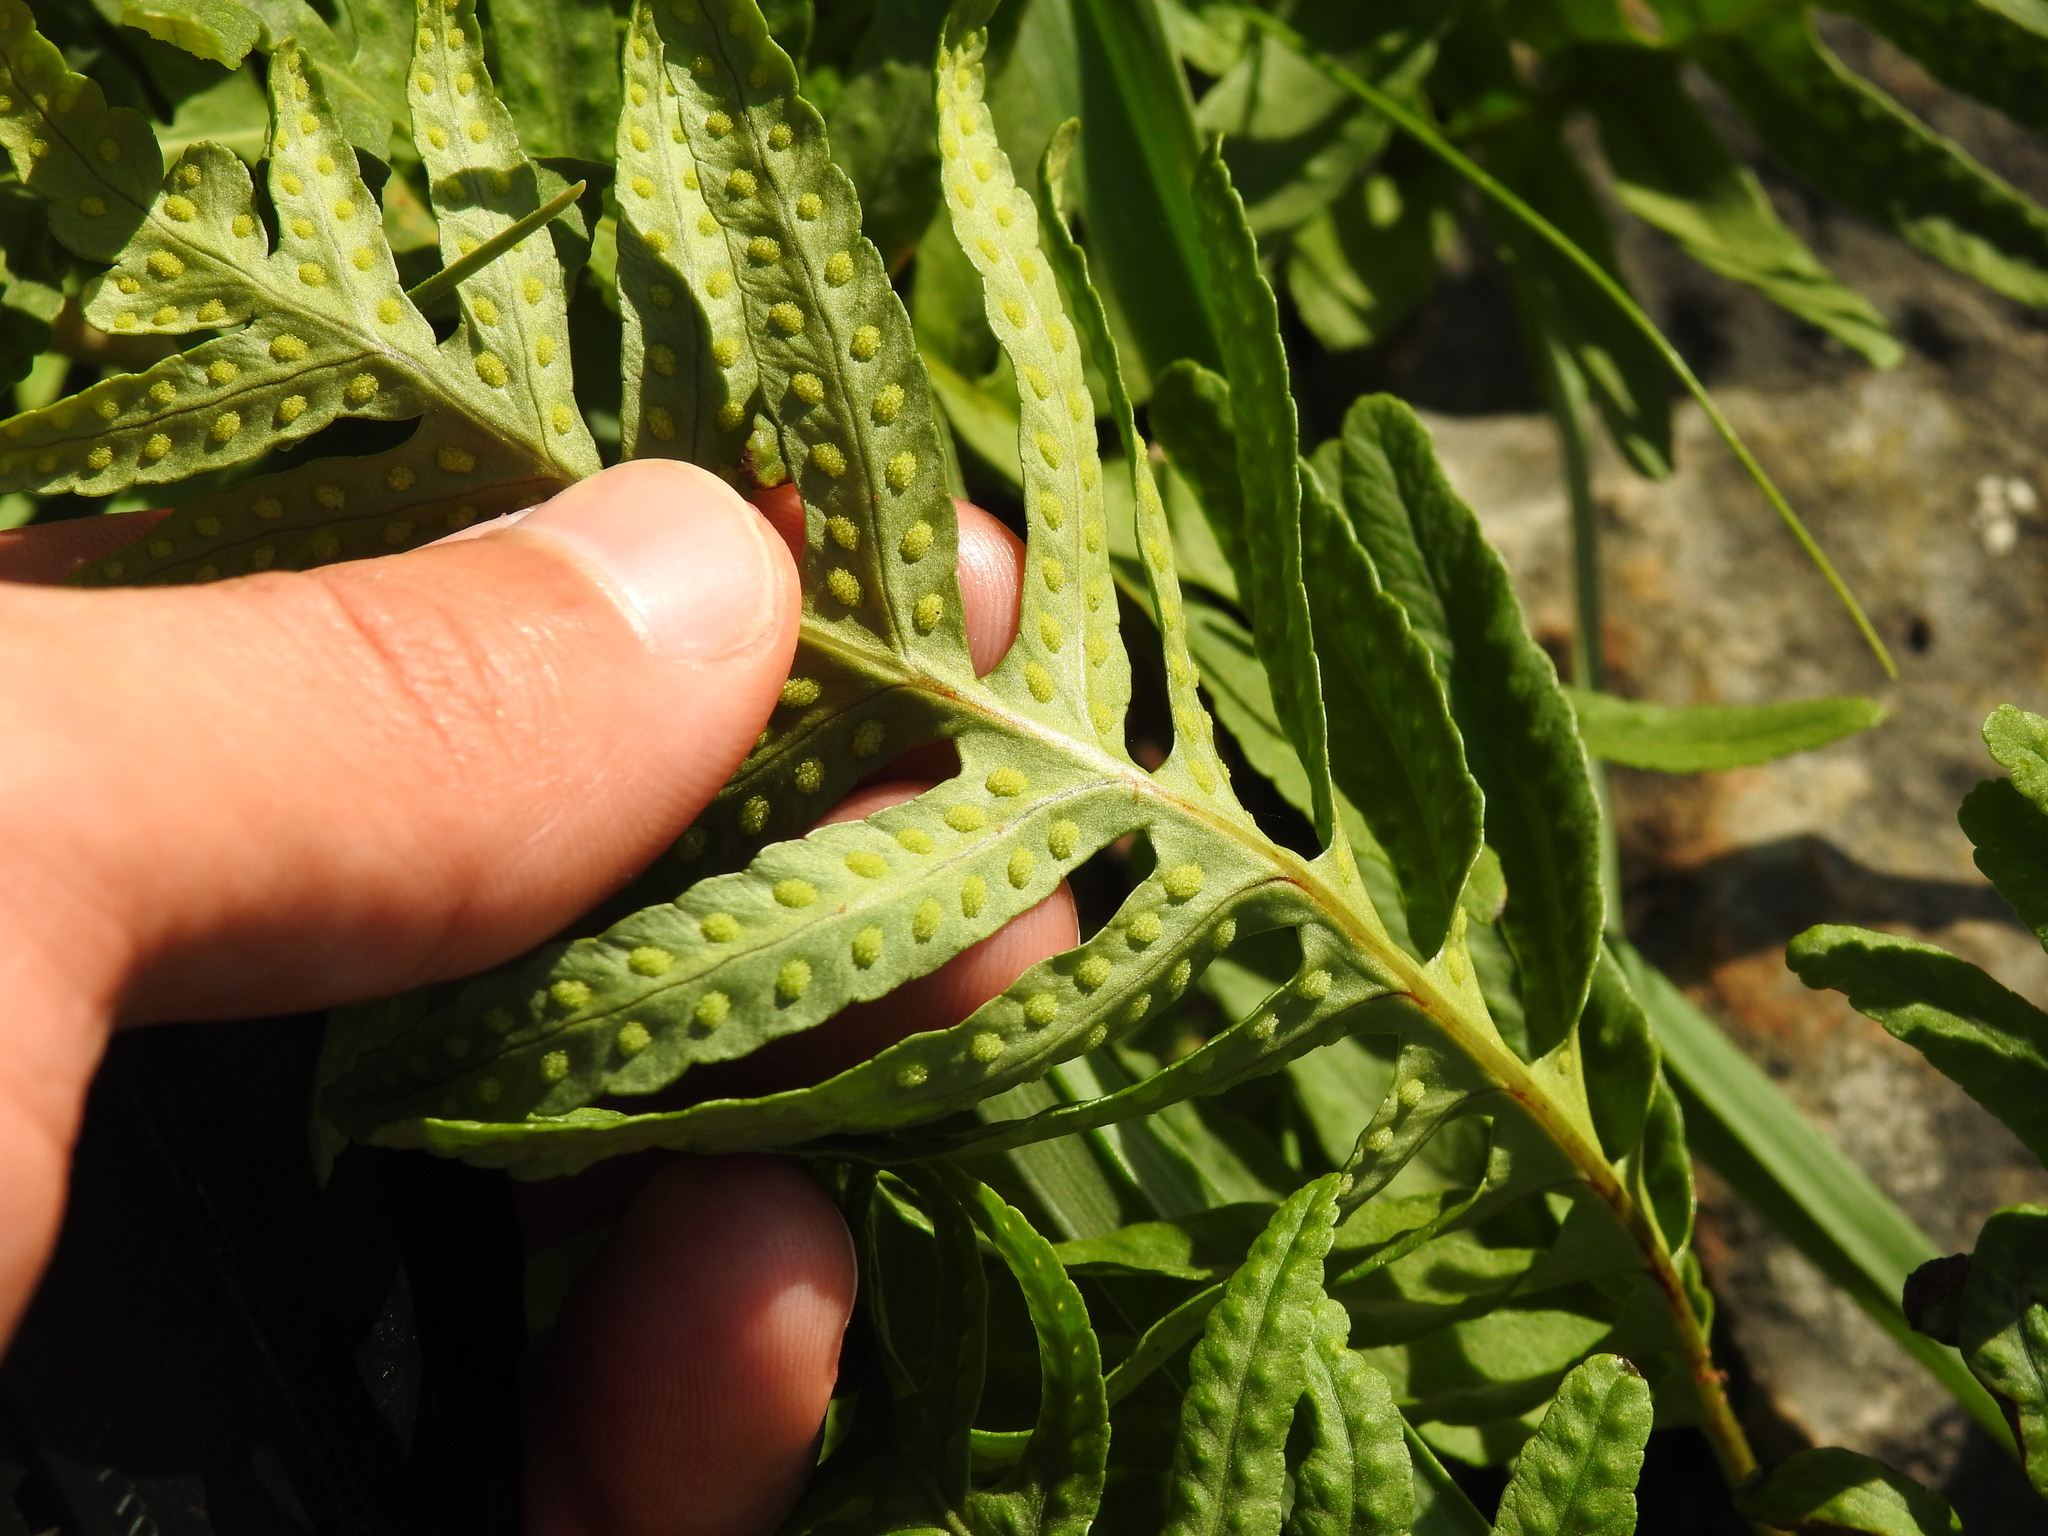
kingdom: Plantae
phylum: Tracheophyta
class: Polypodiopsida
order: Polypodiales
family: Polypodiaceae
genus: Polypodium
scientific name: Polypodium cambricum
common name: Southern polypody
